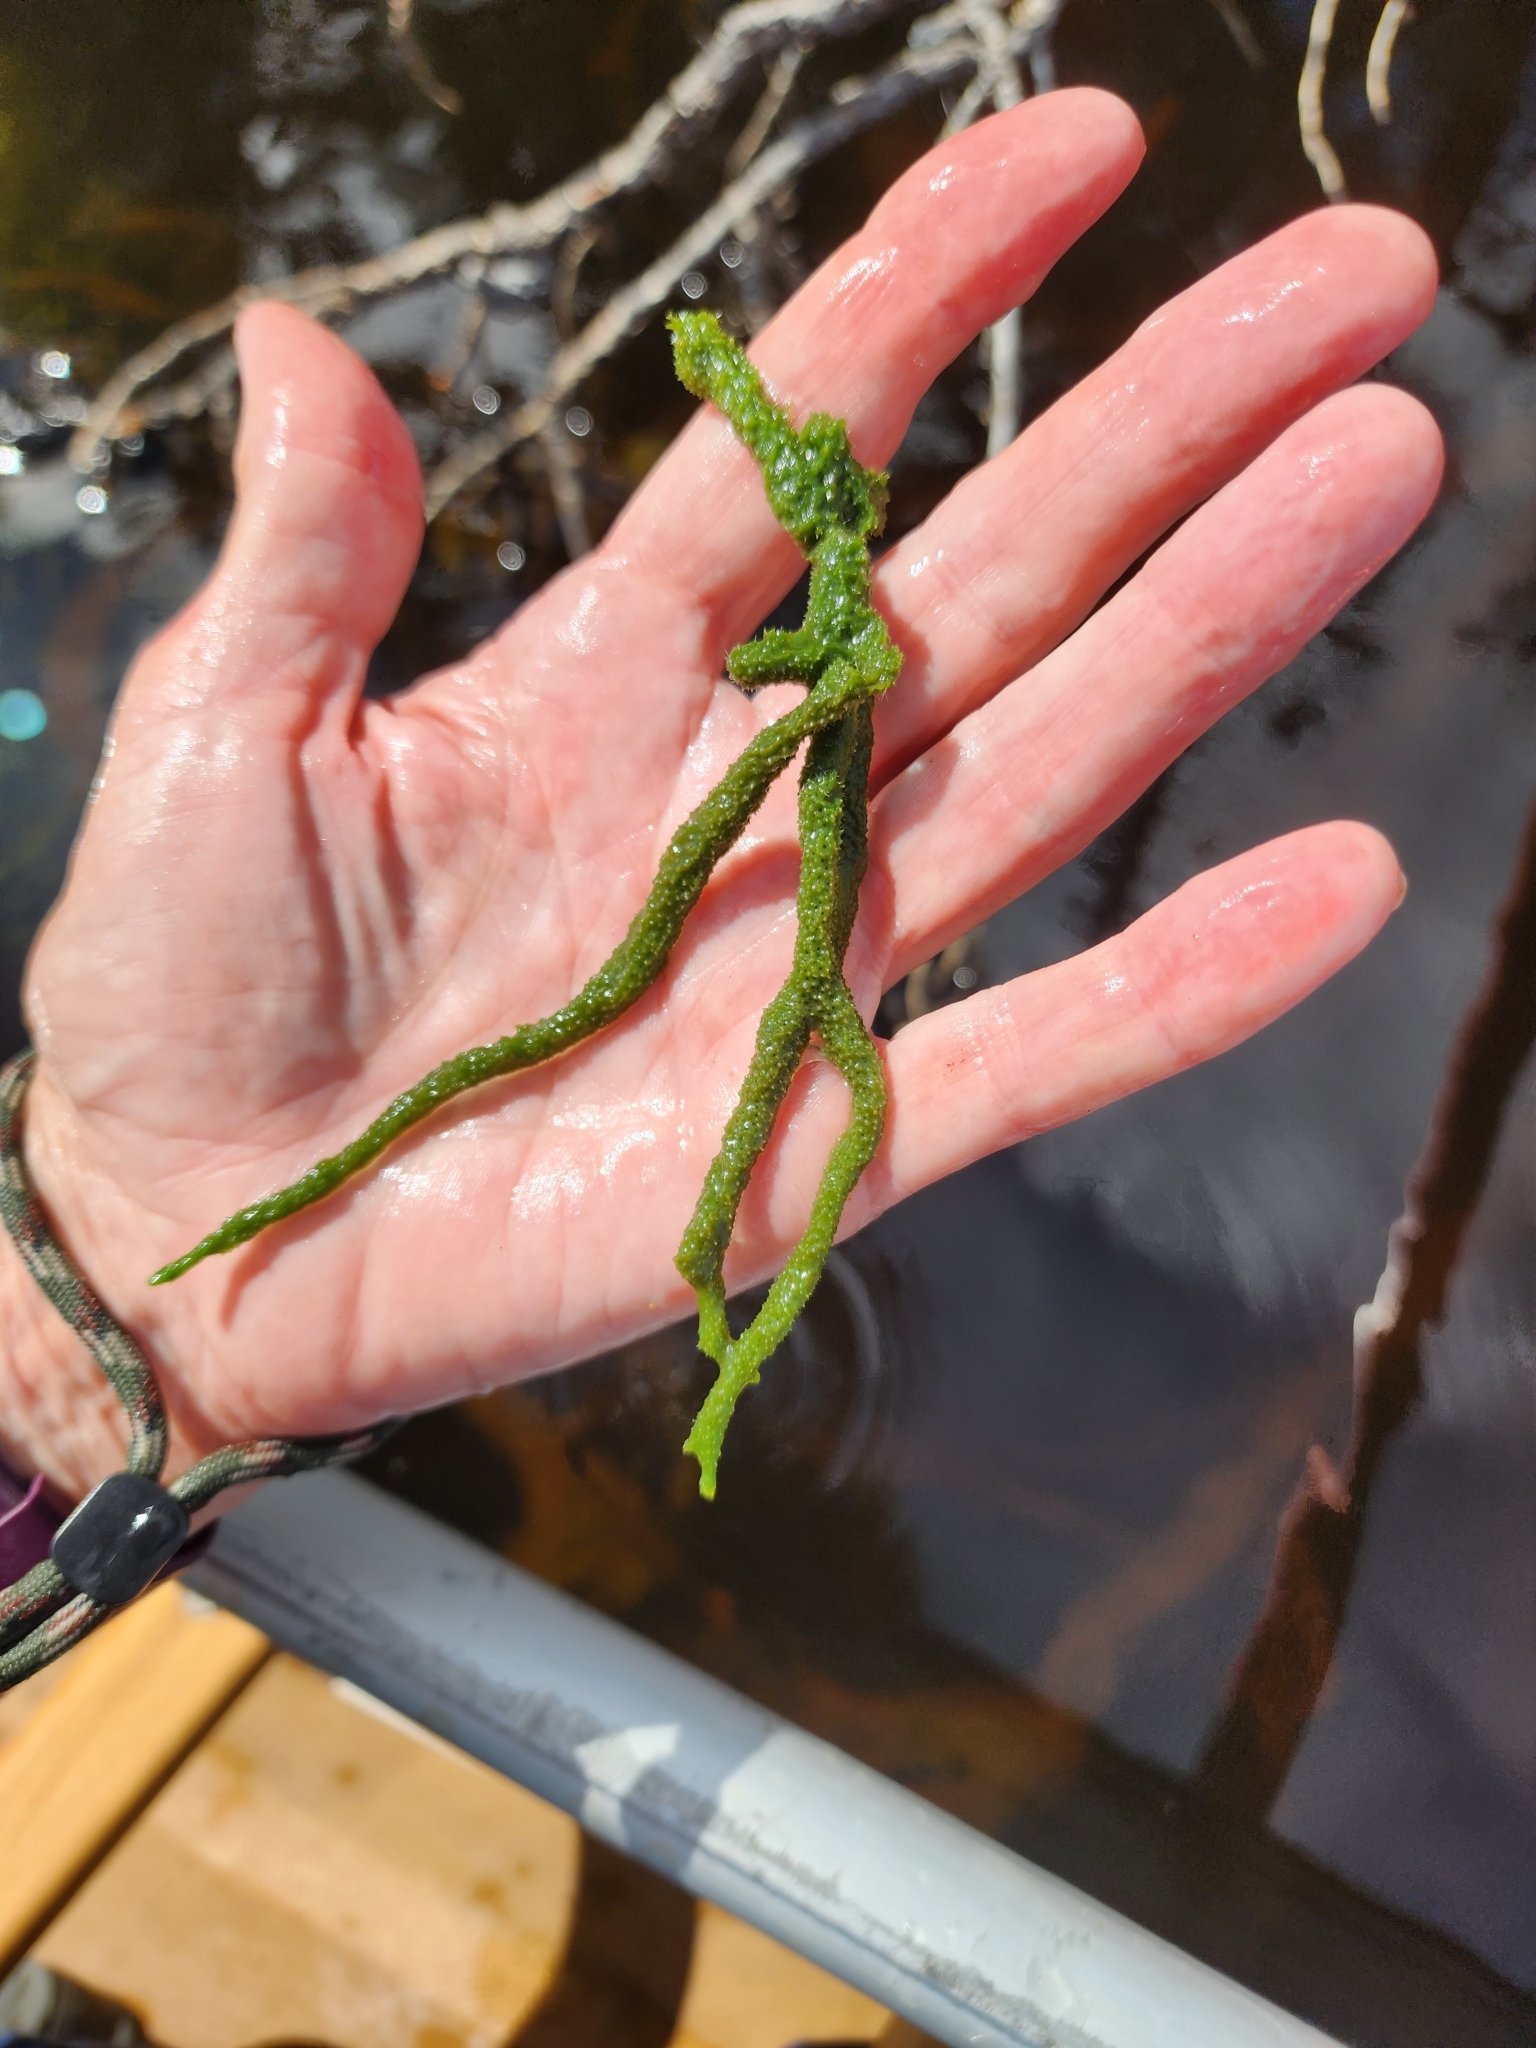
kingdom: Animalia
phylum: Porifera
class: Demospongiae
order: Spongillida
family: Spongillidae
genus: Spongilla
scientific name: Spongilla lacustris
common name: Common freshwater sponge
